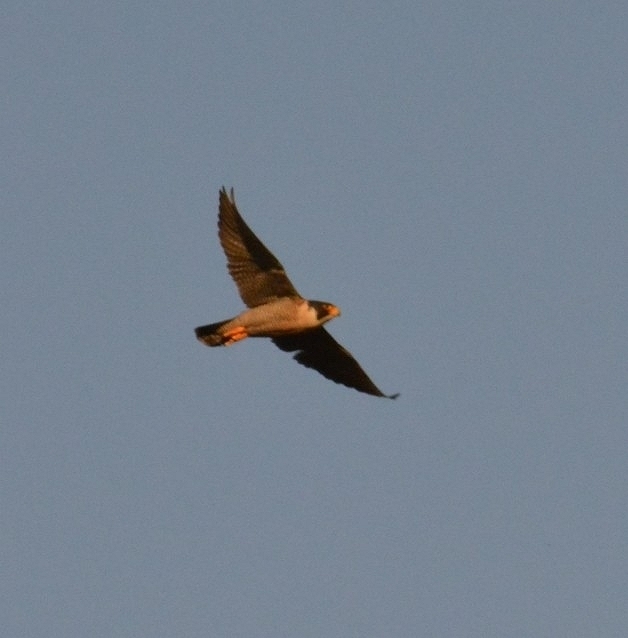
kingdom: Animalia
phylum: Chordata
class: Aves
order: Falconiformes
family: Falconidae
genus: Falco
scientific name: Falco peregrinus
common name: Peregrine falcon
